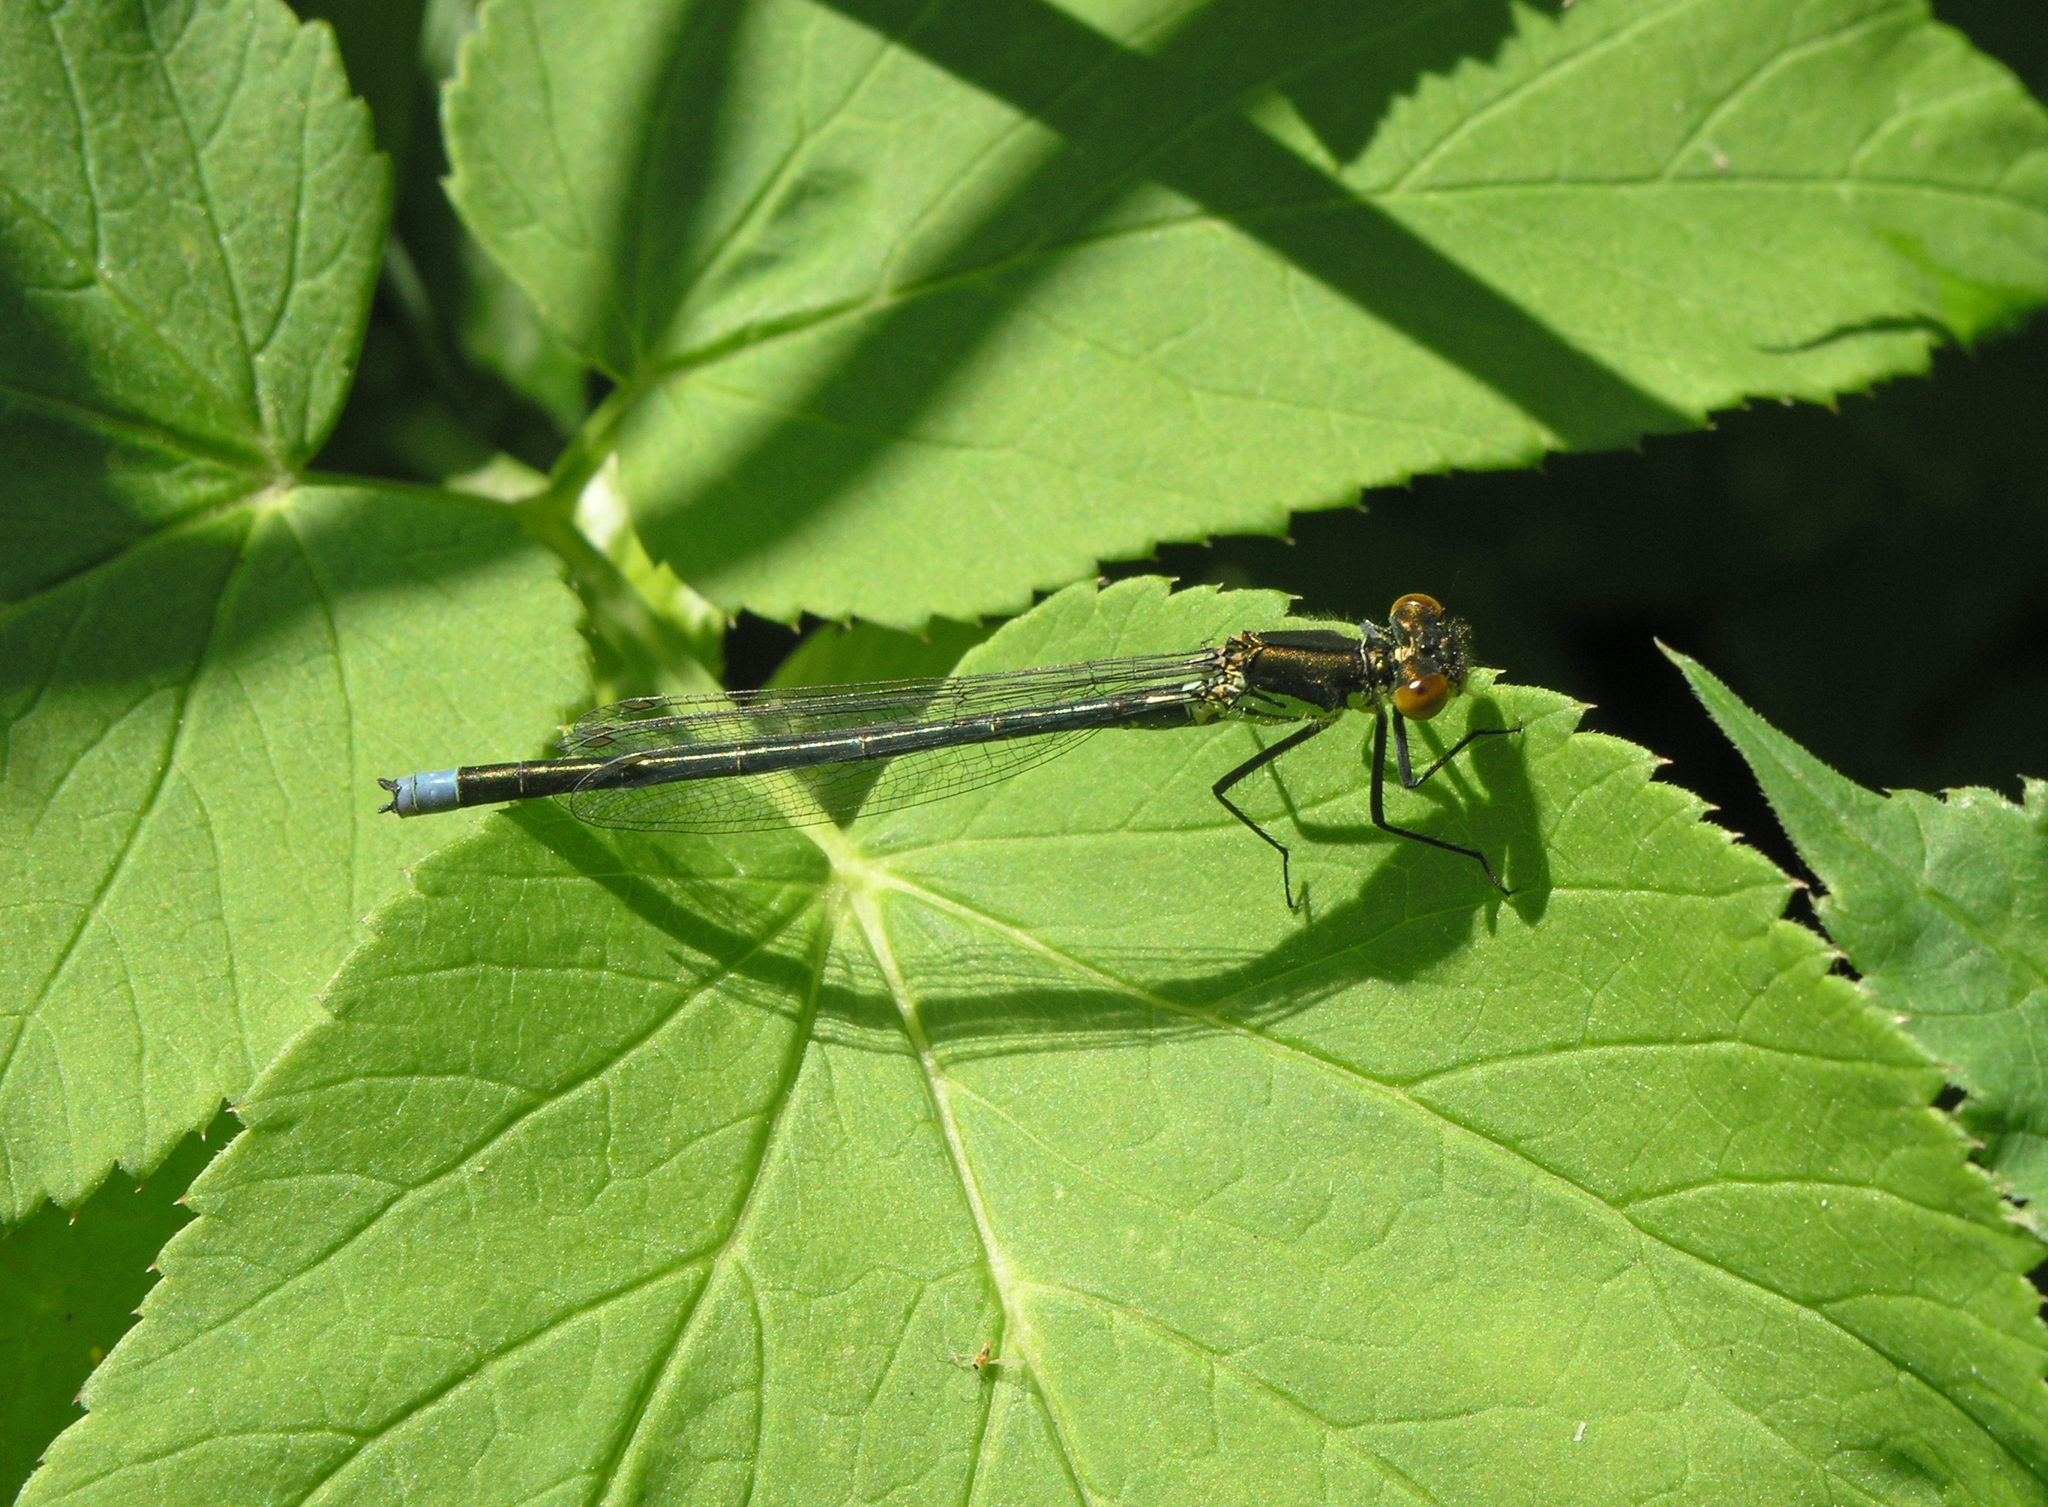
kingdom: Animalia
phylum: Arthropoda
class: Insecta
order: Odonata
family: Coenagrionidae
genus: Erythromma
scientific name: Erythromma najas
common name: Red-eyed damselfly
